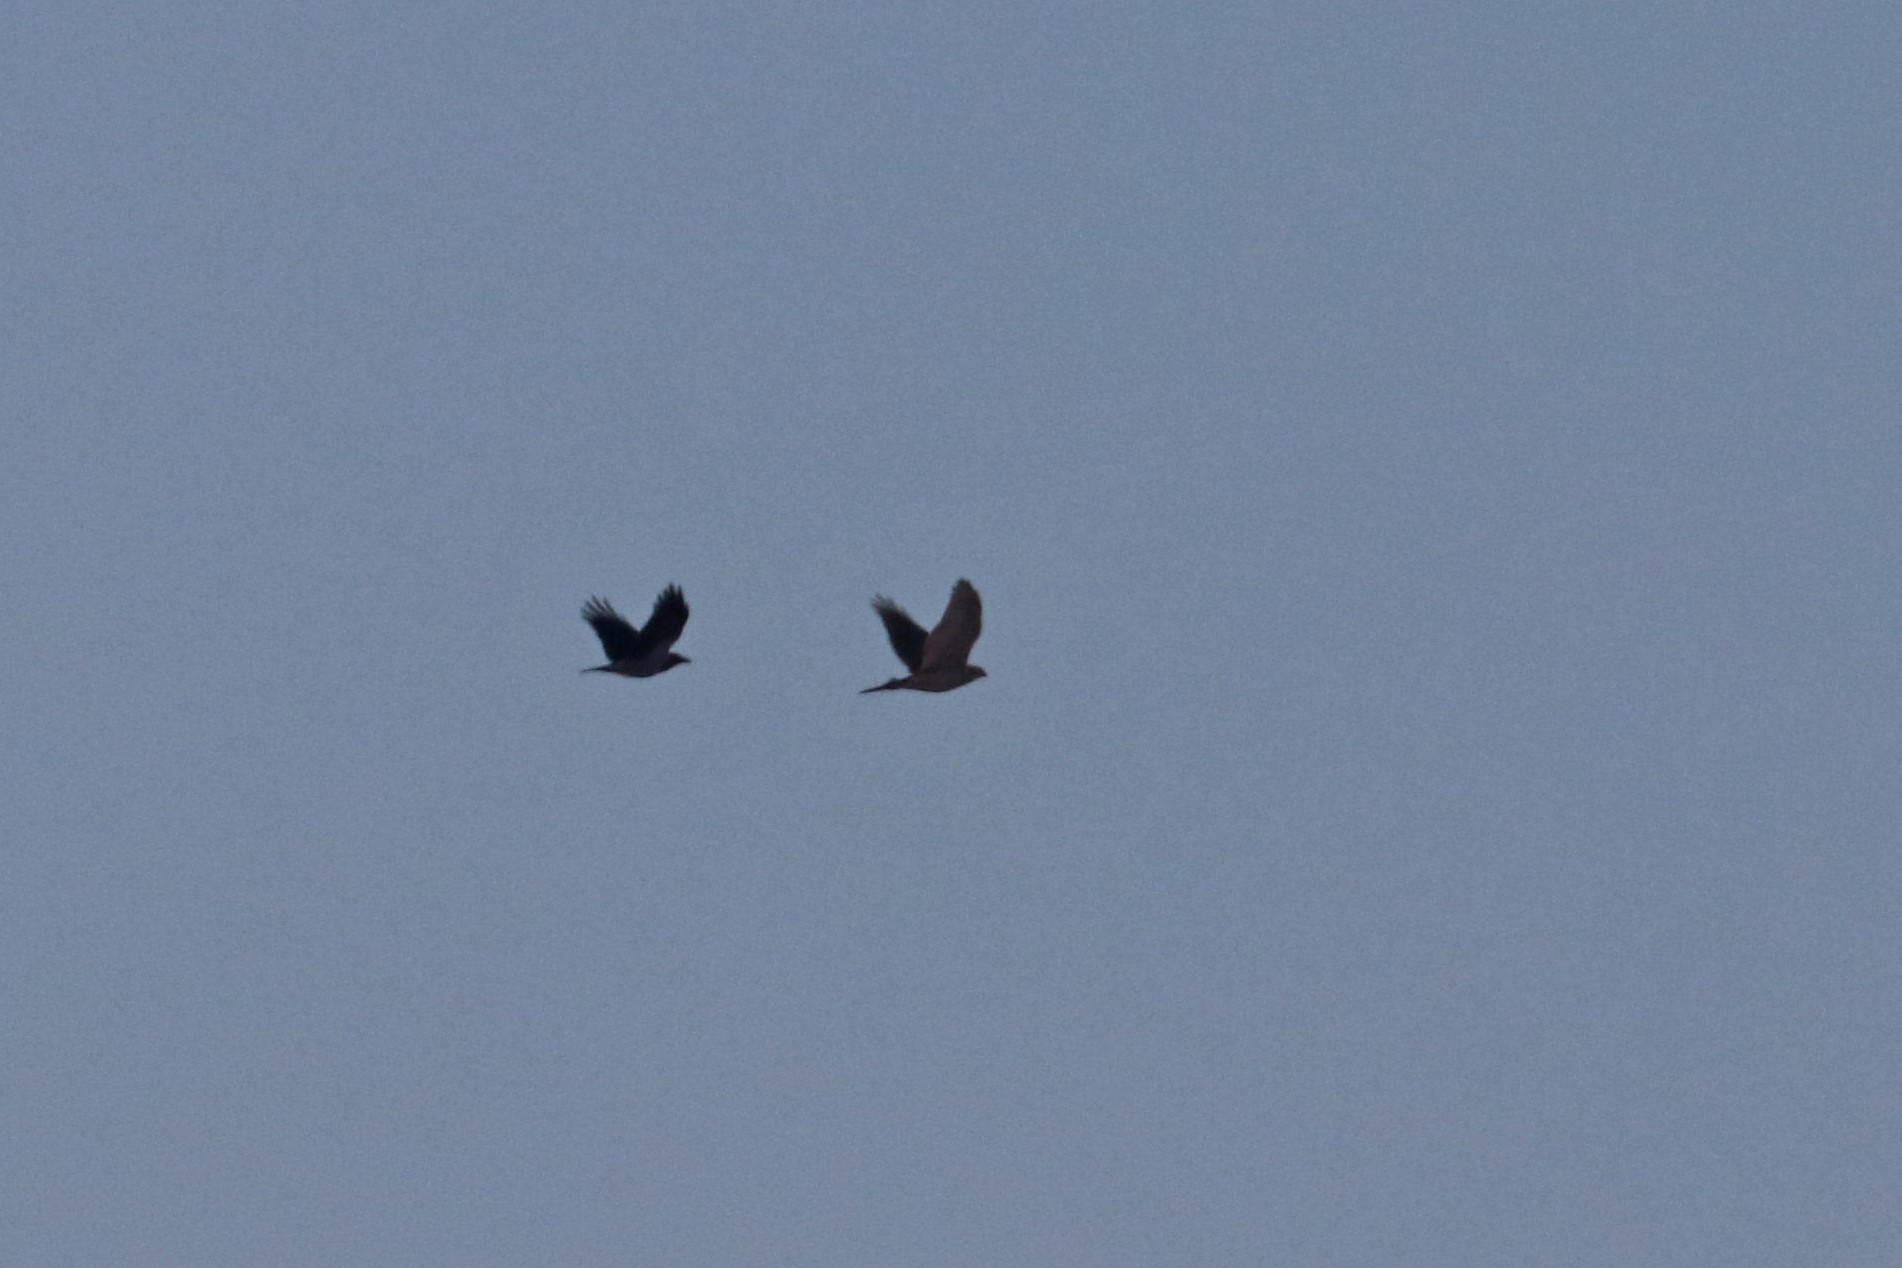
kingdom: Animalia
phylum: Chordata
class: Aves
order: Accipitriformes
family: Accipitridae
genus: Accipiter
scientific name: Accipiter gentilis
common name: Northern goshawk
